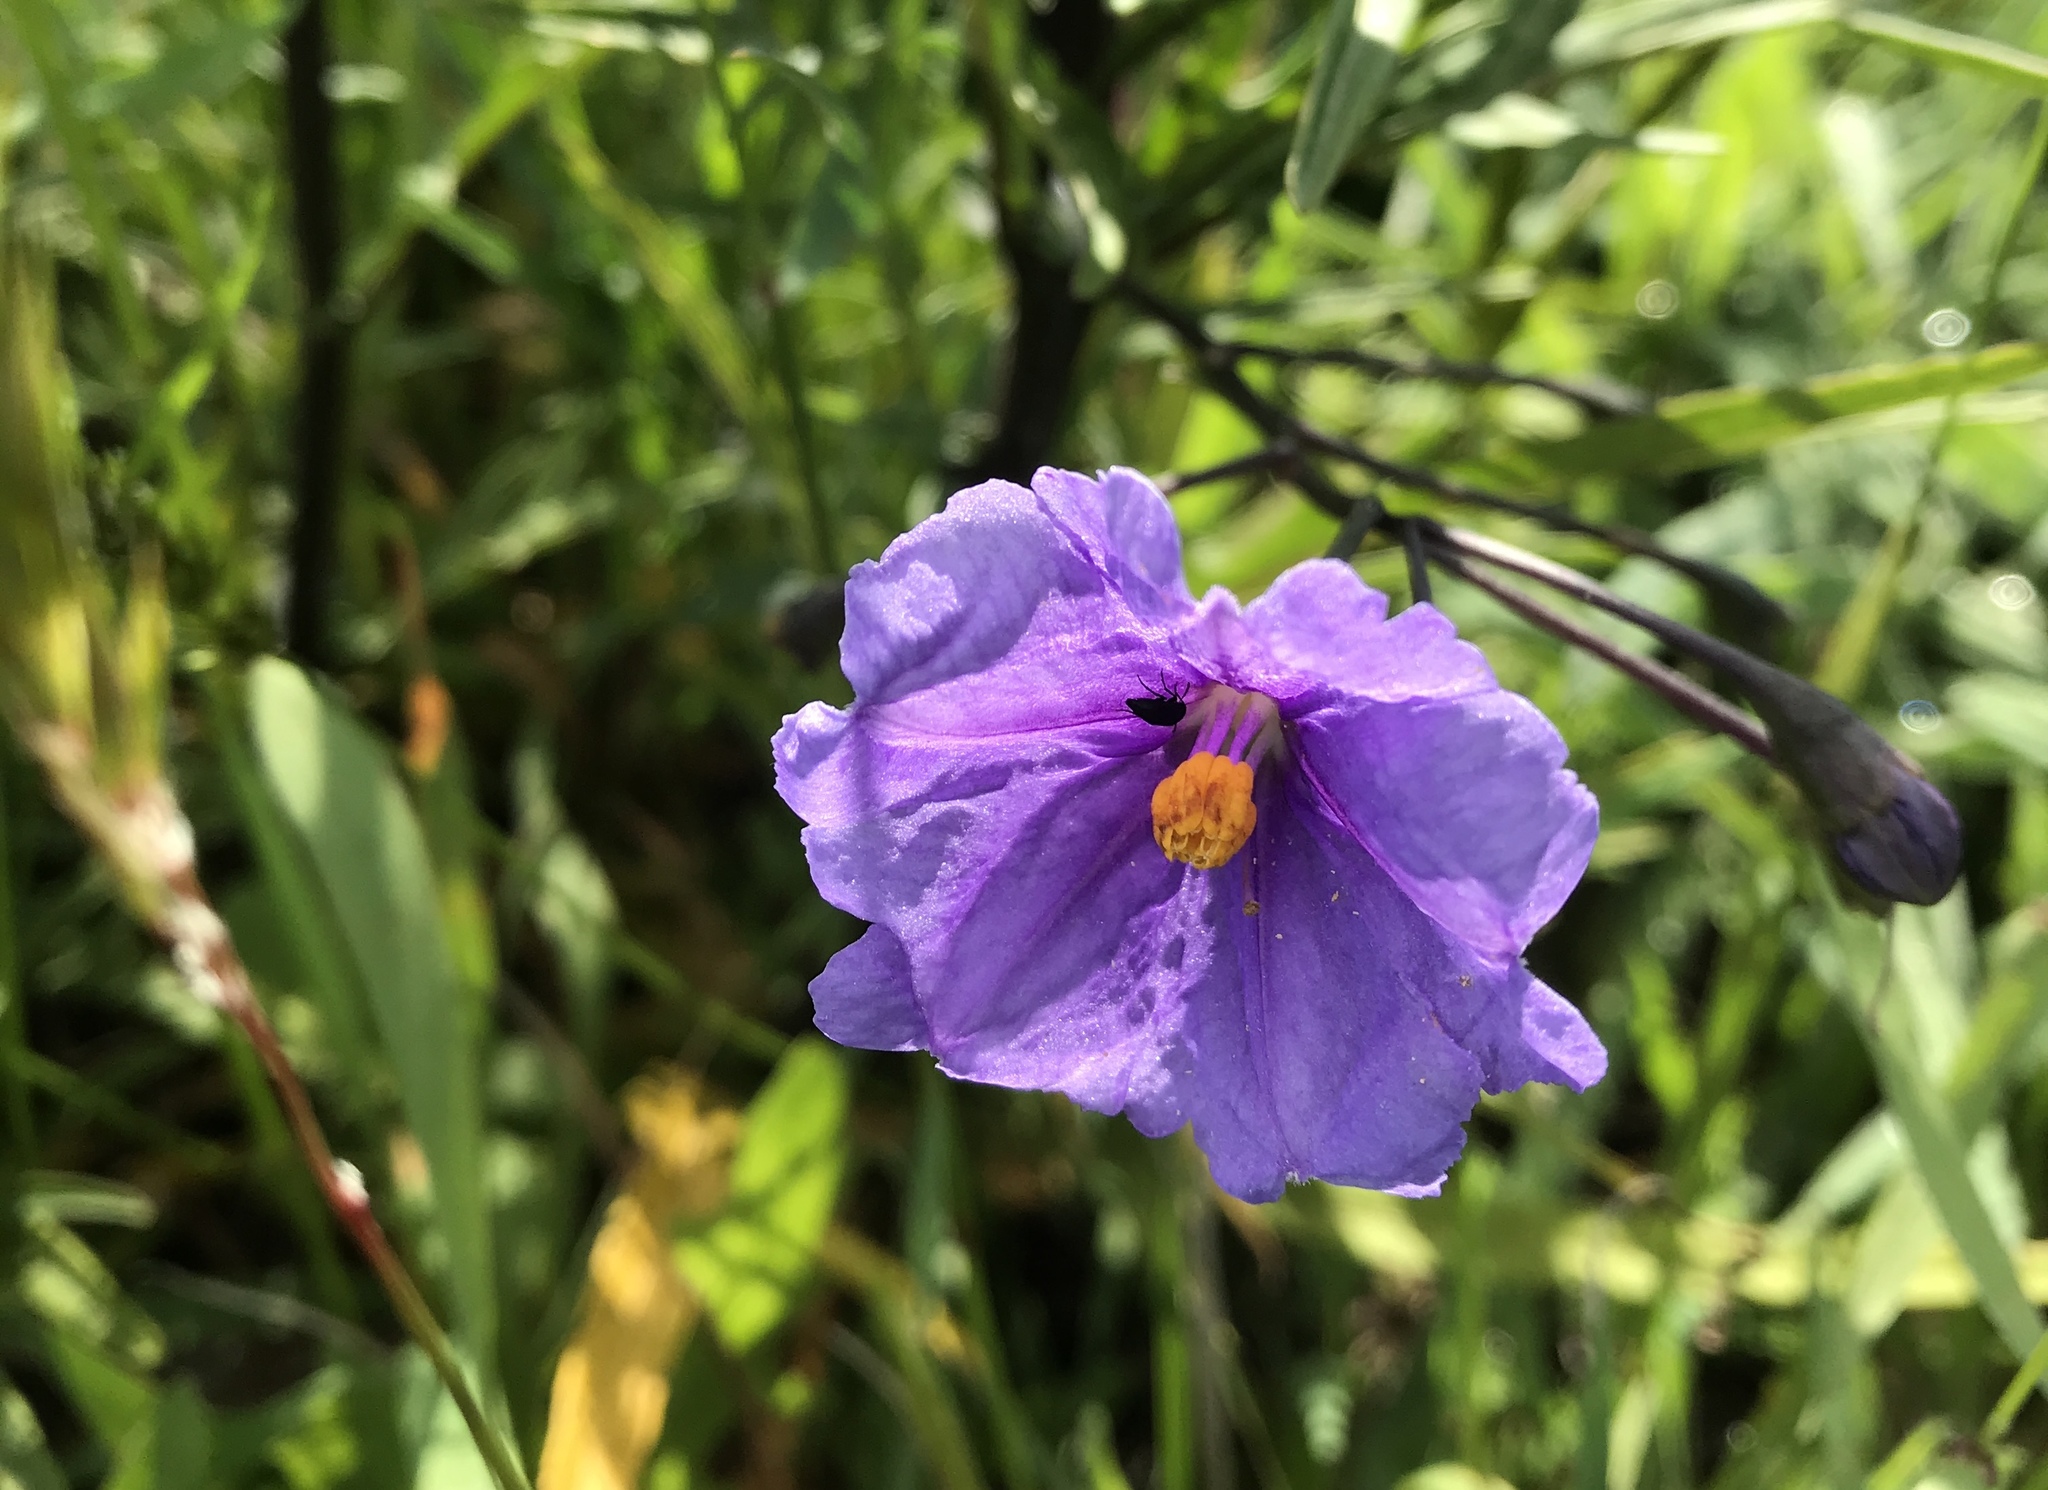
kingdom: Plantae
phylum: Tracheophyta
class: Magnoliopsida
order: Solanales
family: Solanaceae
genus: Solanum
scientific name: Solanum laciniatum
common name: Kangaroo-apple
